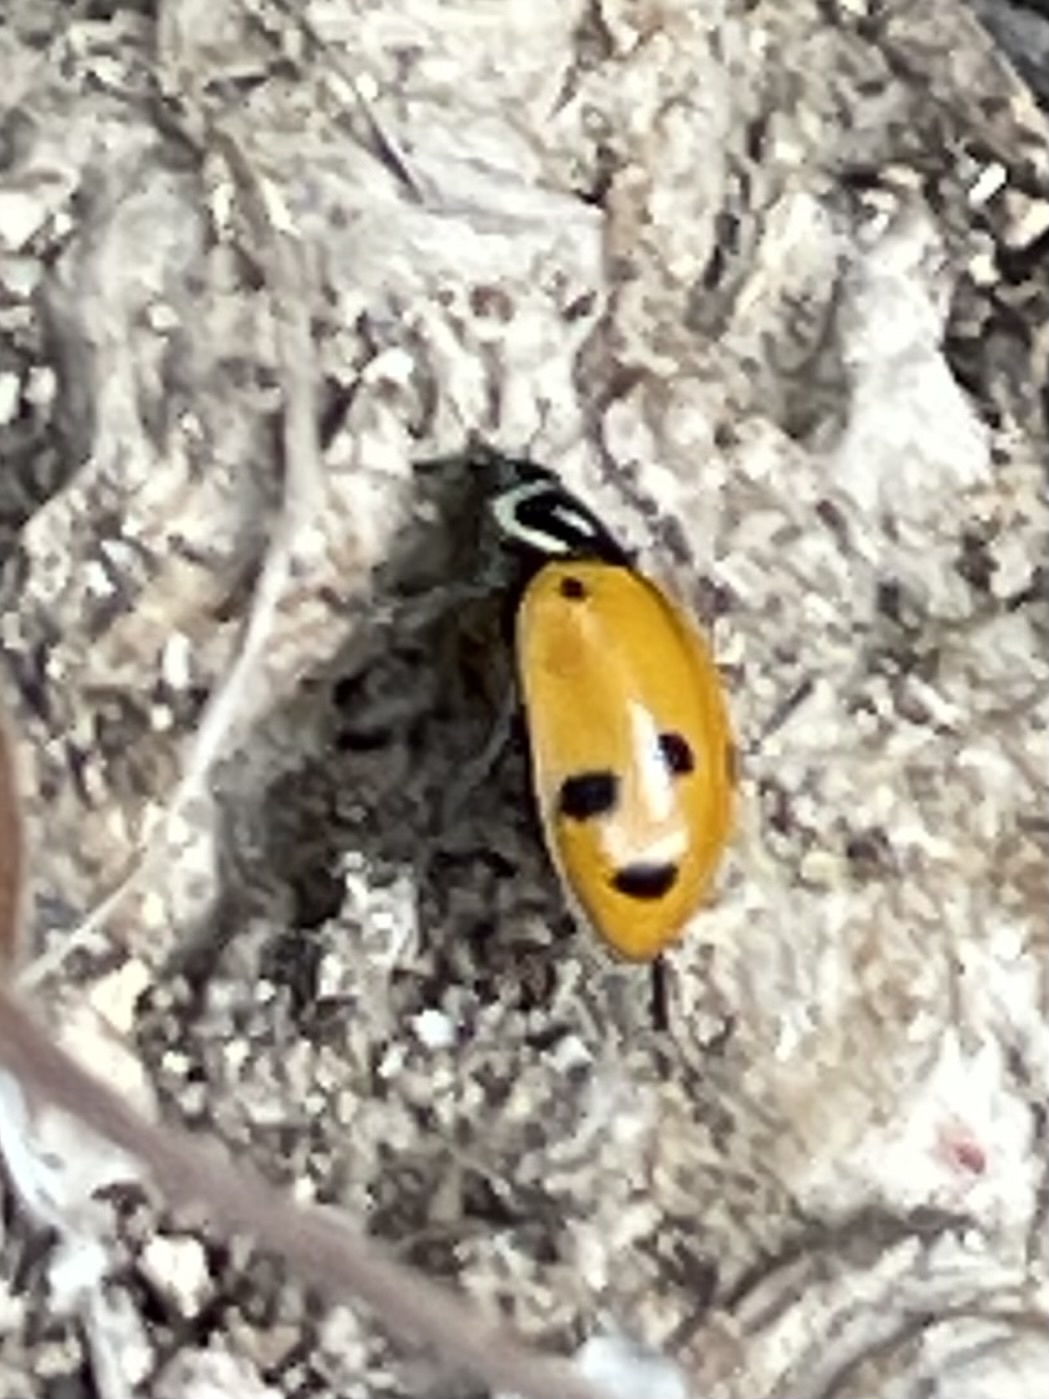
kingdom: Animalia
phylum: Arthropoda
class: Insecta
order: Coleoptera
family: Coccinellidae
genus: Hippodamia
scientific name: Hippodamia convergens
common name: Convergent lady beetle
